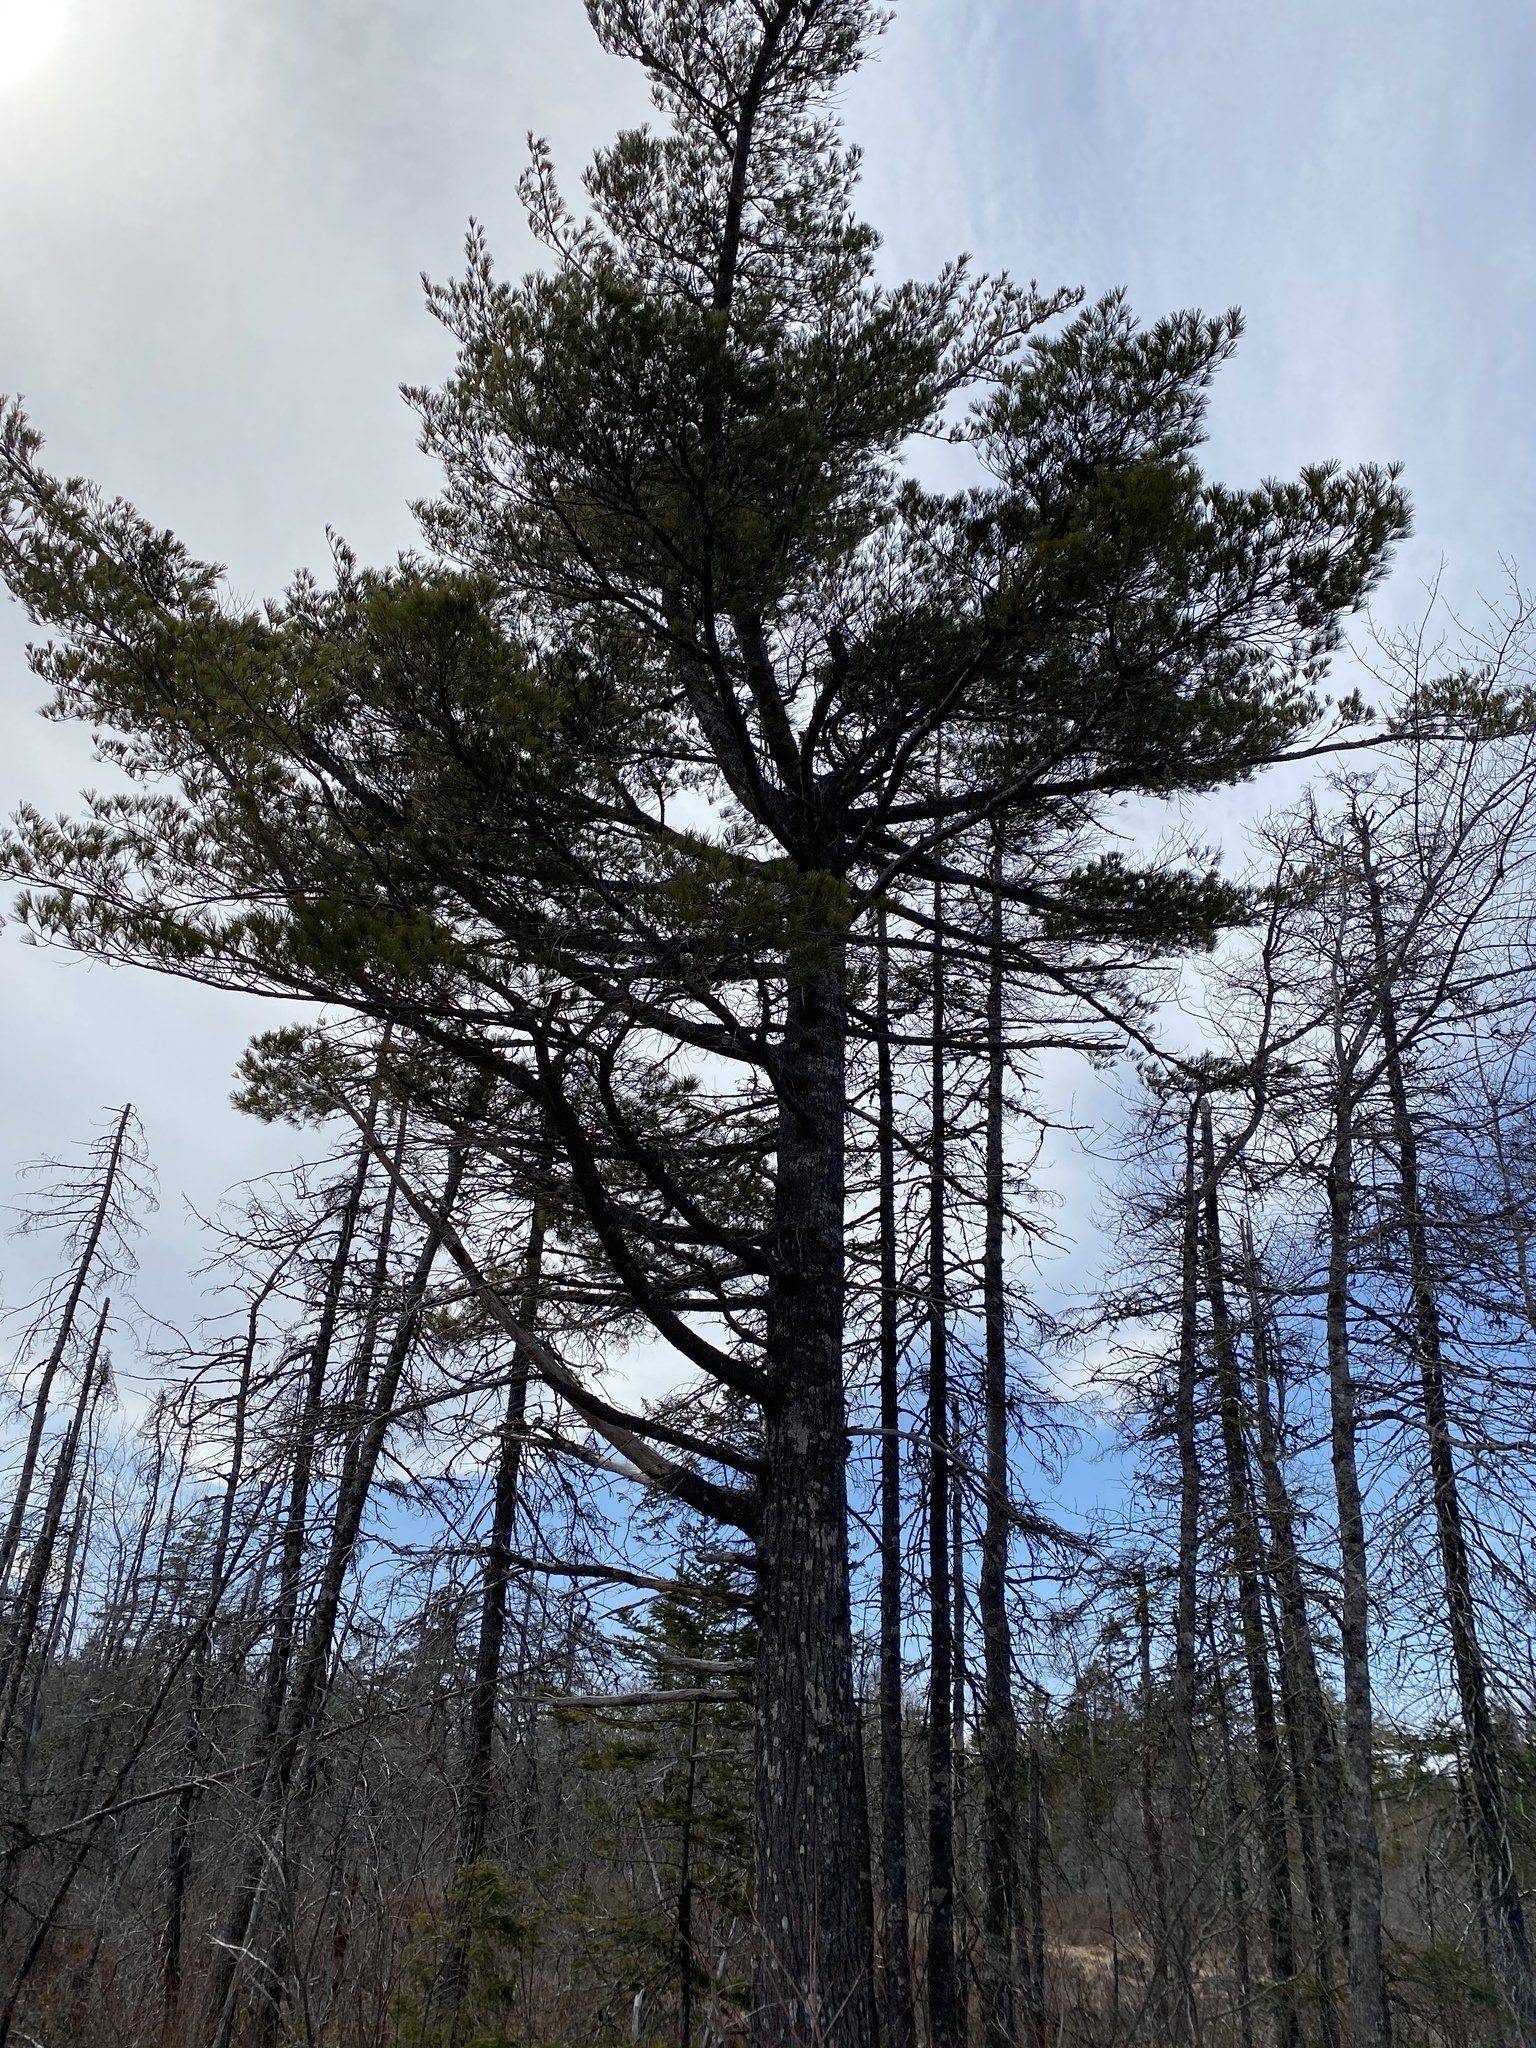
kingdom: Plantae
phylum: Tracheophyta
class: Pinopsida
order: Pinales
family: Pinaceae
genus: Pinus
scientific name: Pinus strobus
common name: Weymouth pine
